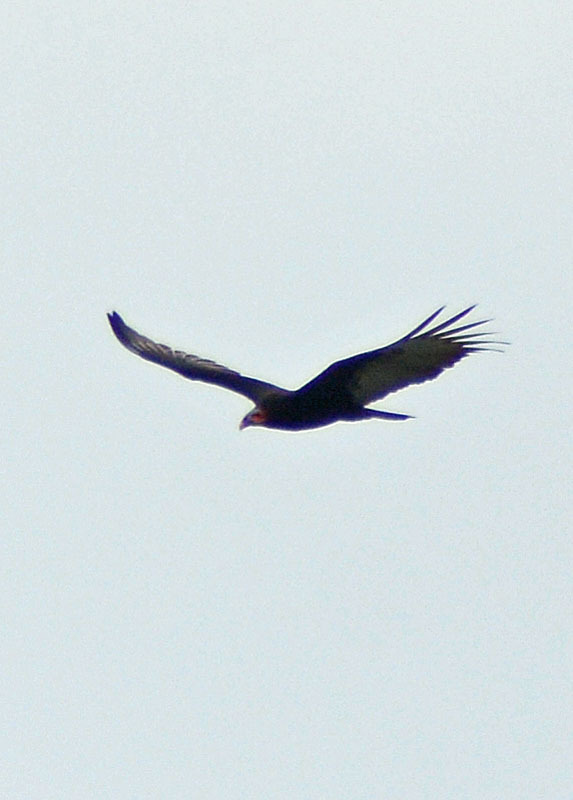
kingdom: Animalia
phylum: Chordata
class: Aves
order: Accipitriformes
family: Cathartidae
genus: Cathartes
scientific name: Cathartes burrovianus
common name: Lesser yellow-headed vulture
